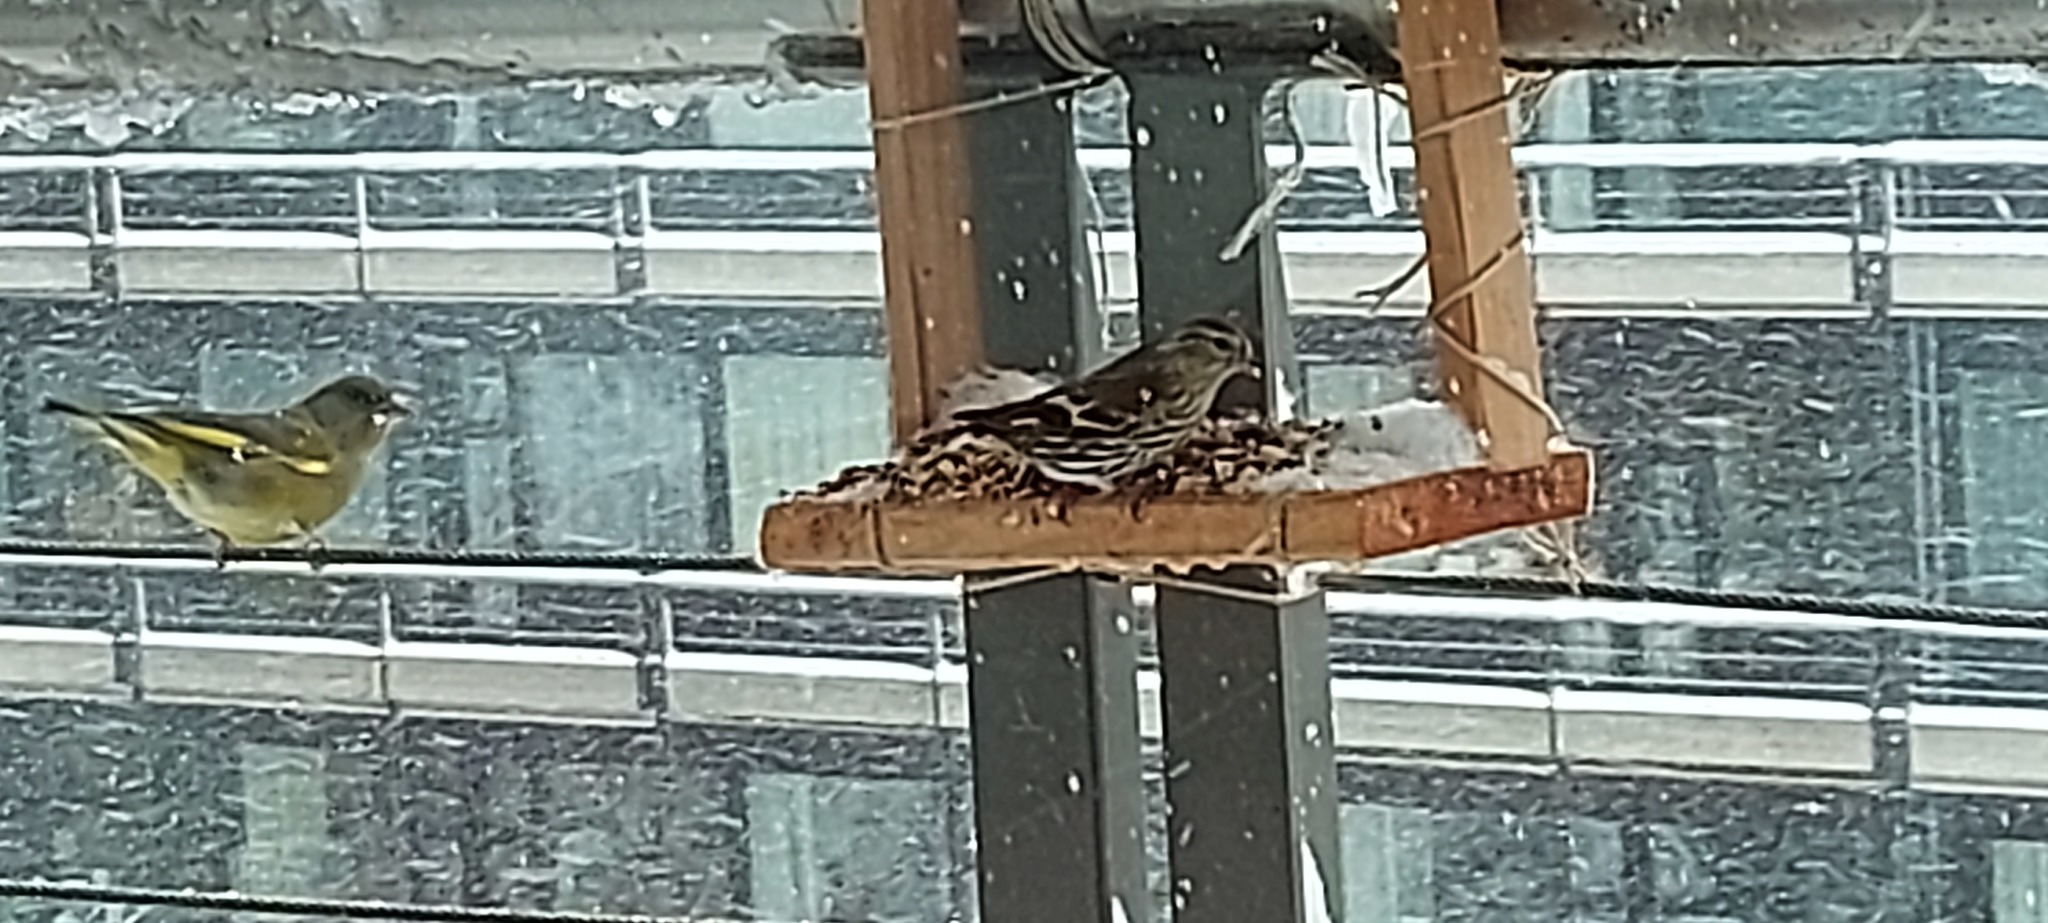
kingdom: Plantae
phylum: Tracheophyta
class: Liliopsida
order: Poales
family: Poaceae
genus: Chloris
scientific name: Chloris chloris
